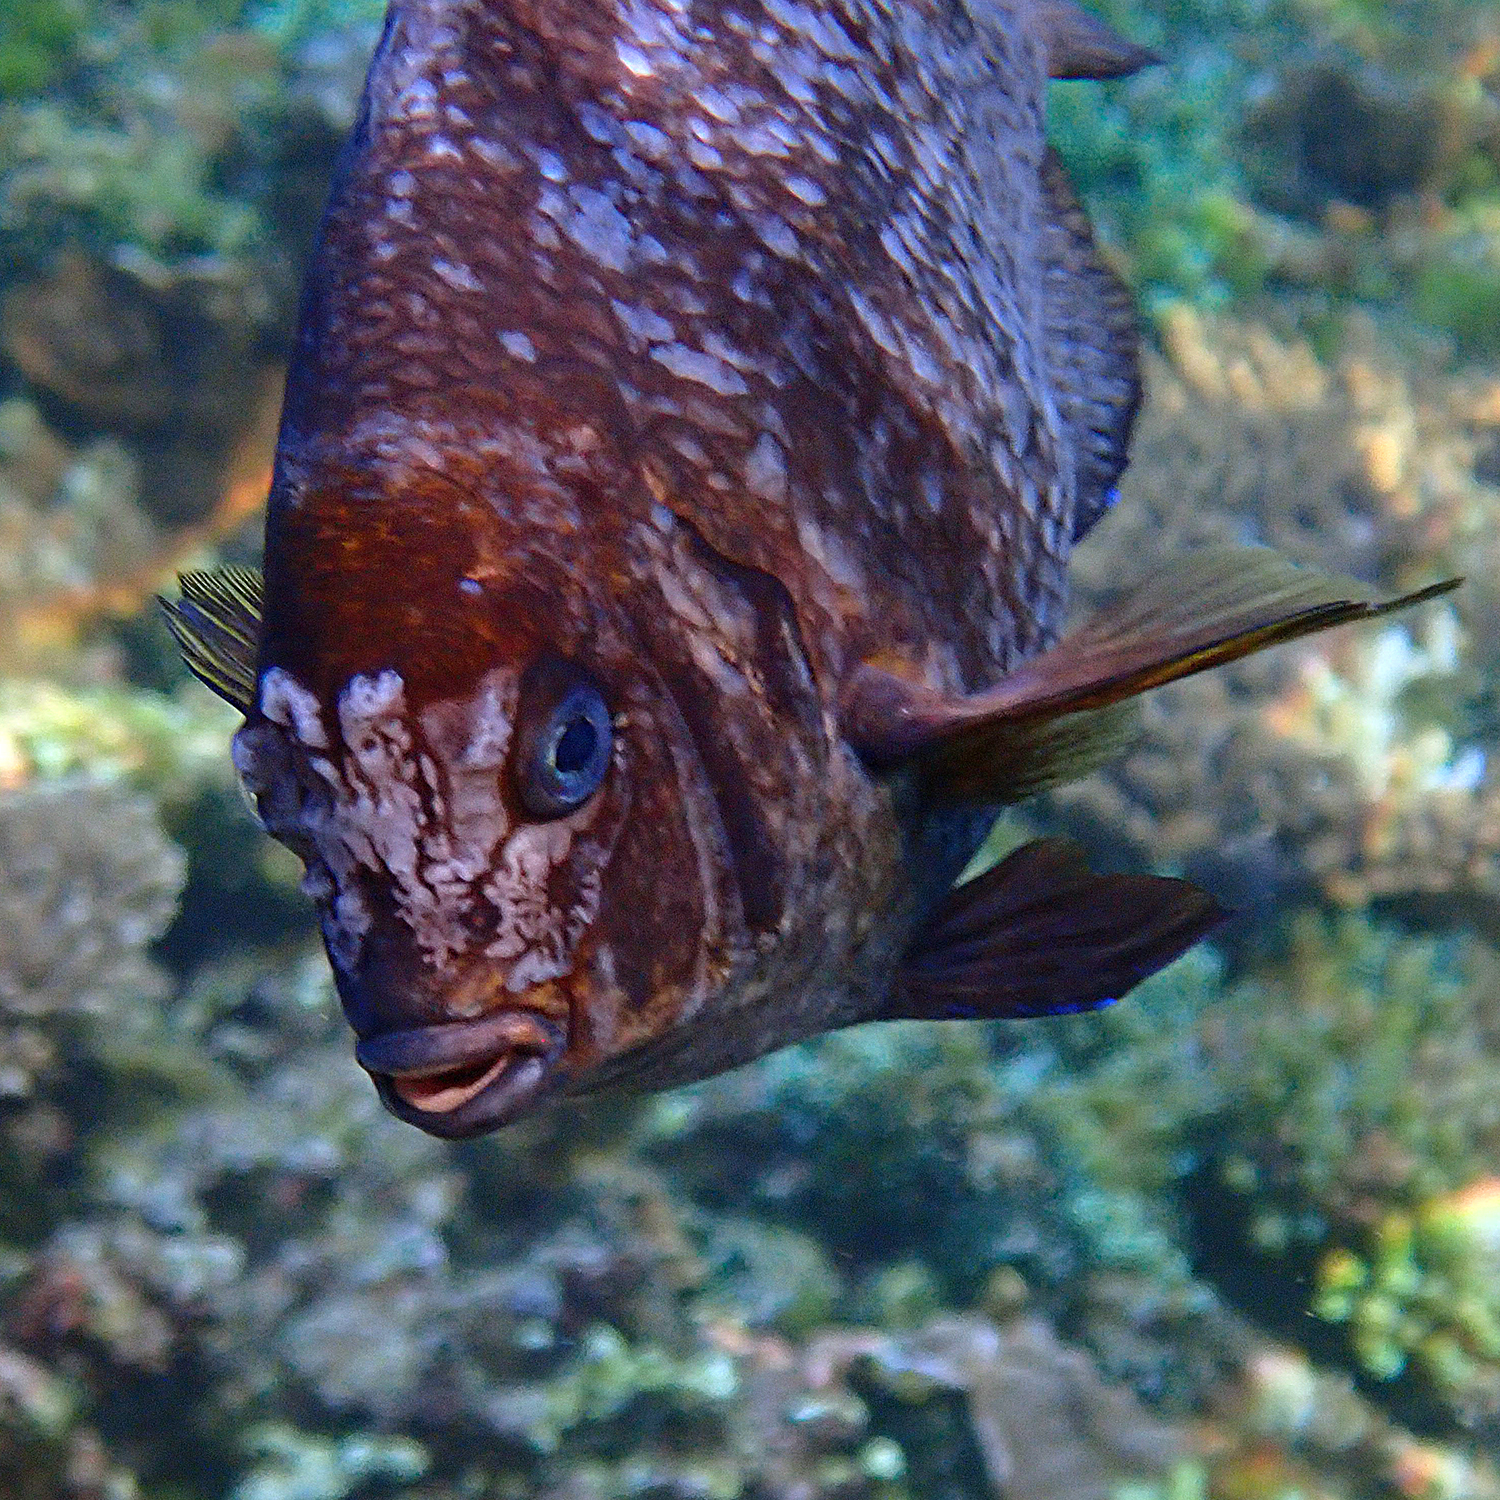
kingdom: Animalia
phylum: Chordata
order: Perciformes
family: Pomacentridae
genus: Parma
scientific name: Parma polylepis
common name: Banded parma
